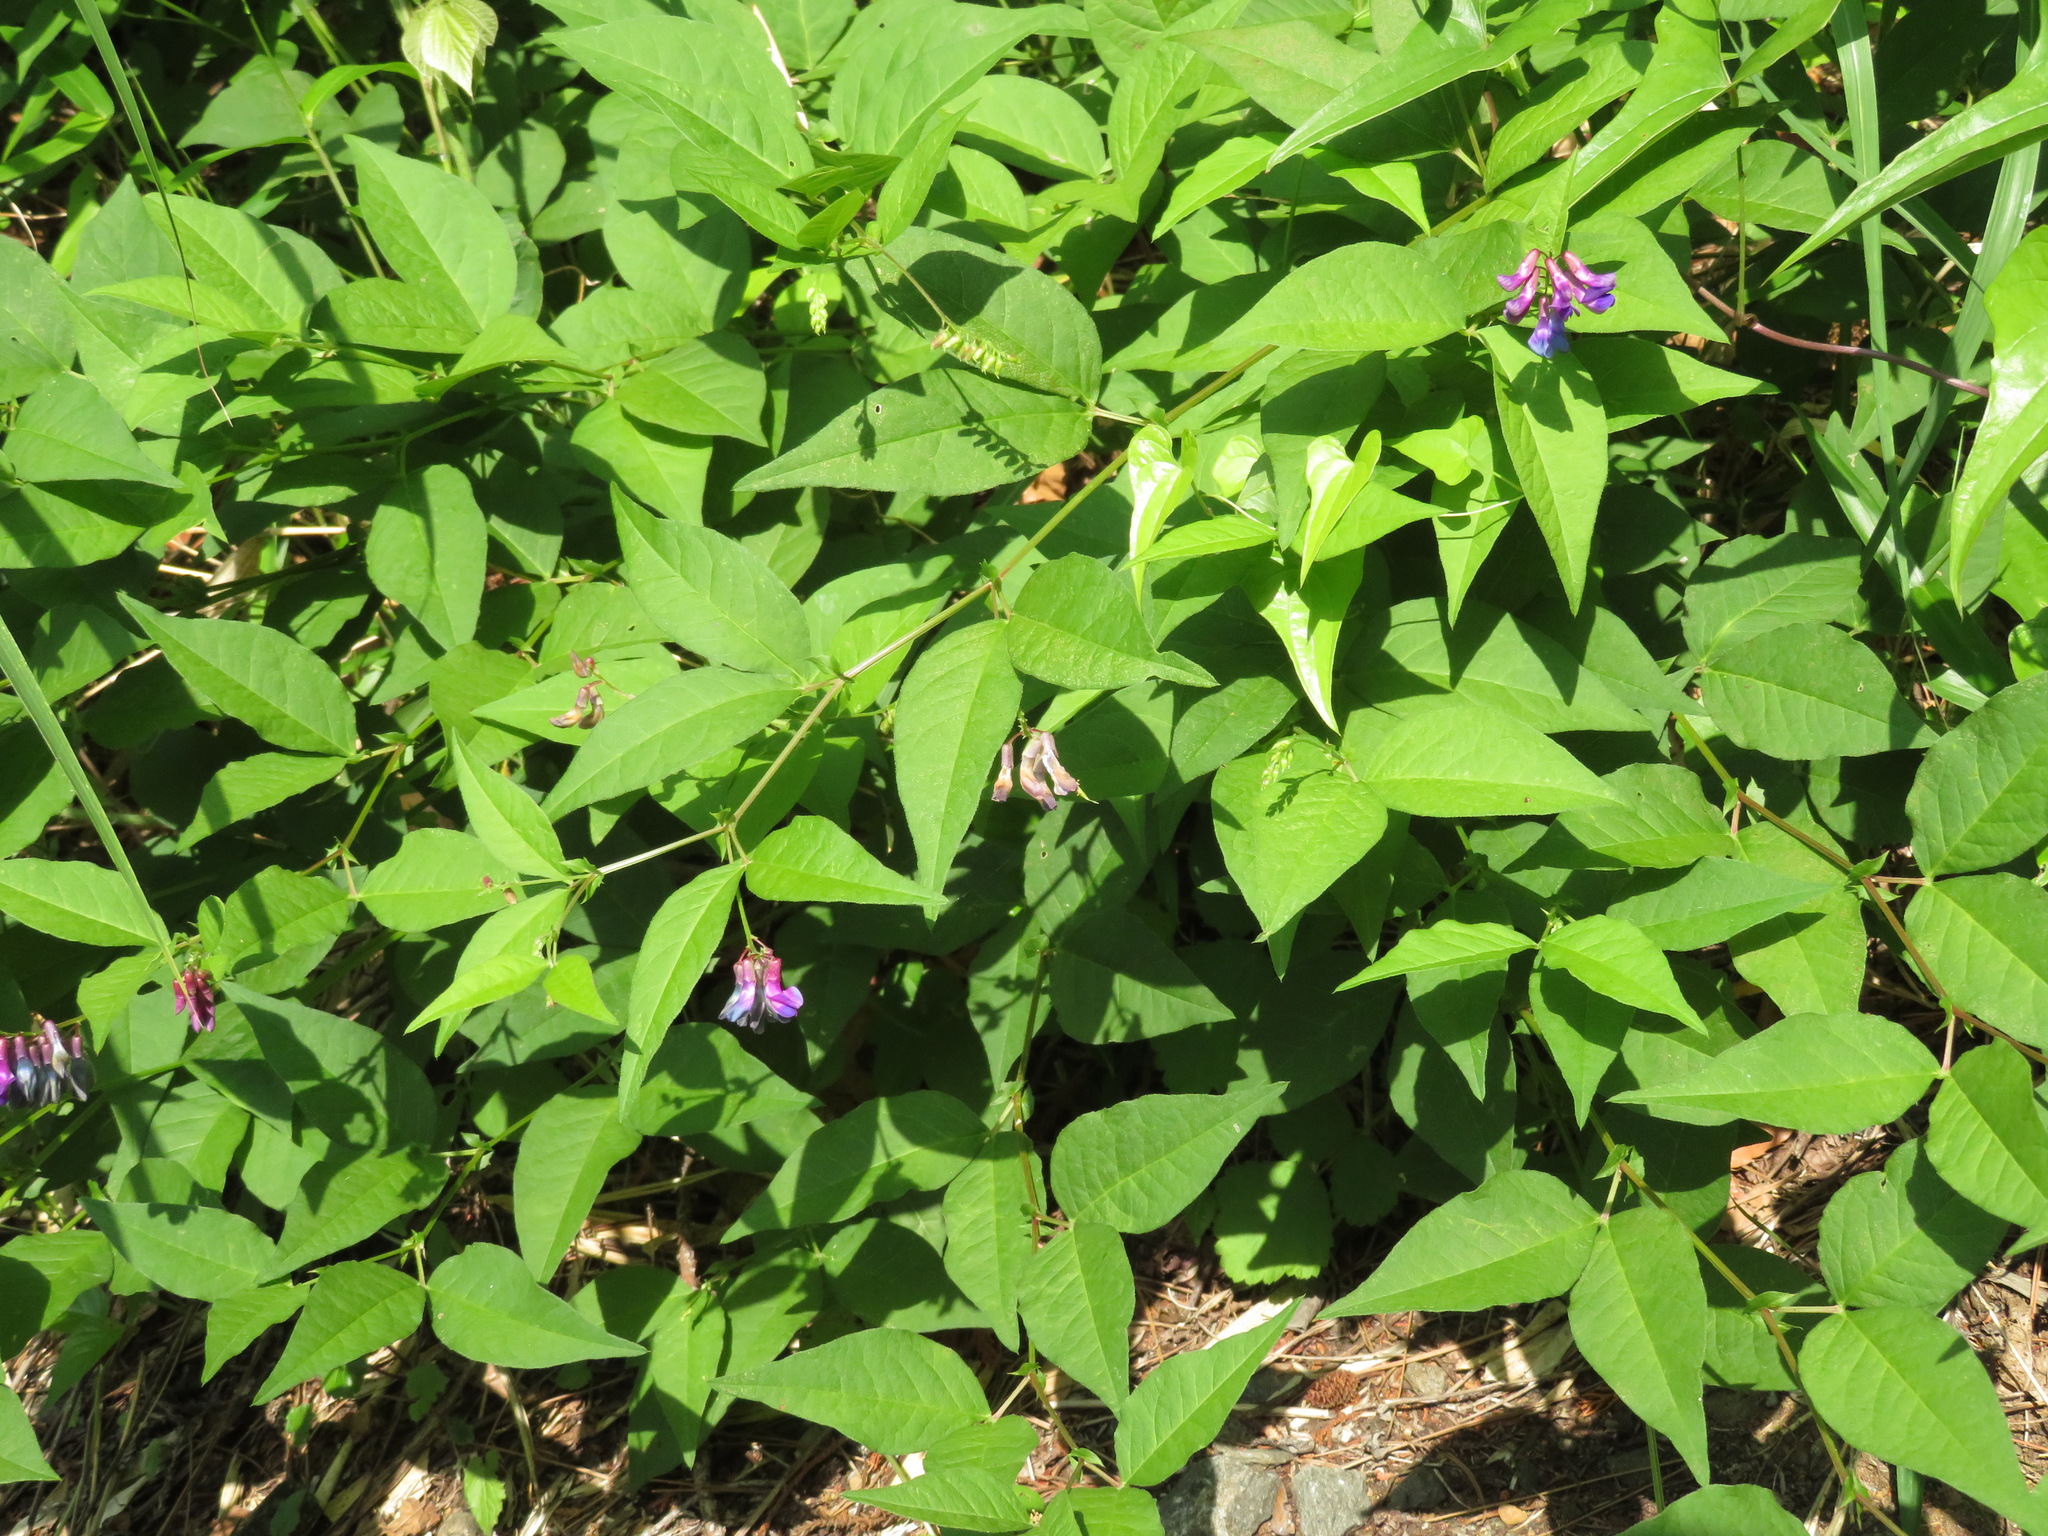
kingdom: Plantae
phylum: Tracheophyta
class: Magnoliopsida
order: Fabales
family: Fabaceae
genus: Vicia
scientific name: Vicia unijuga
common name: Two-leaf vetch
